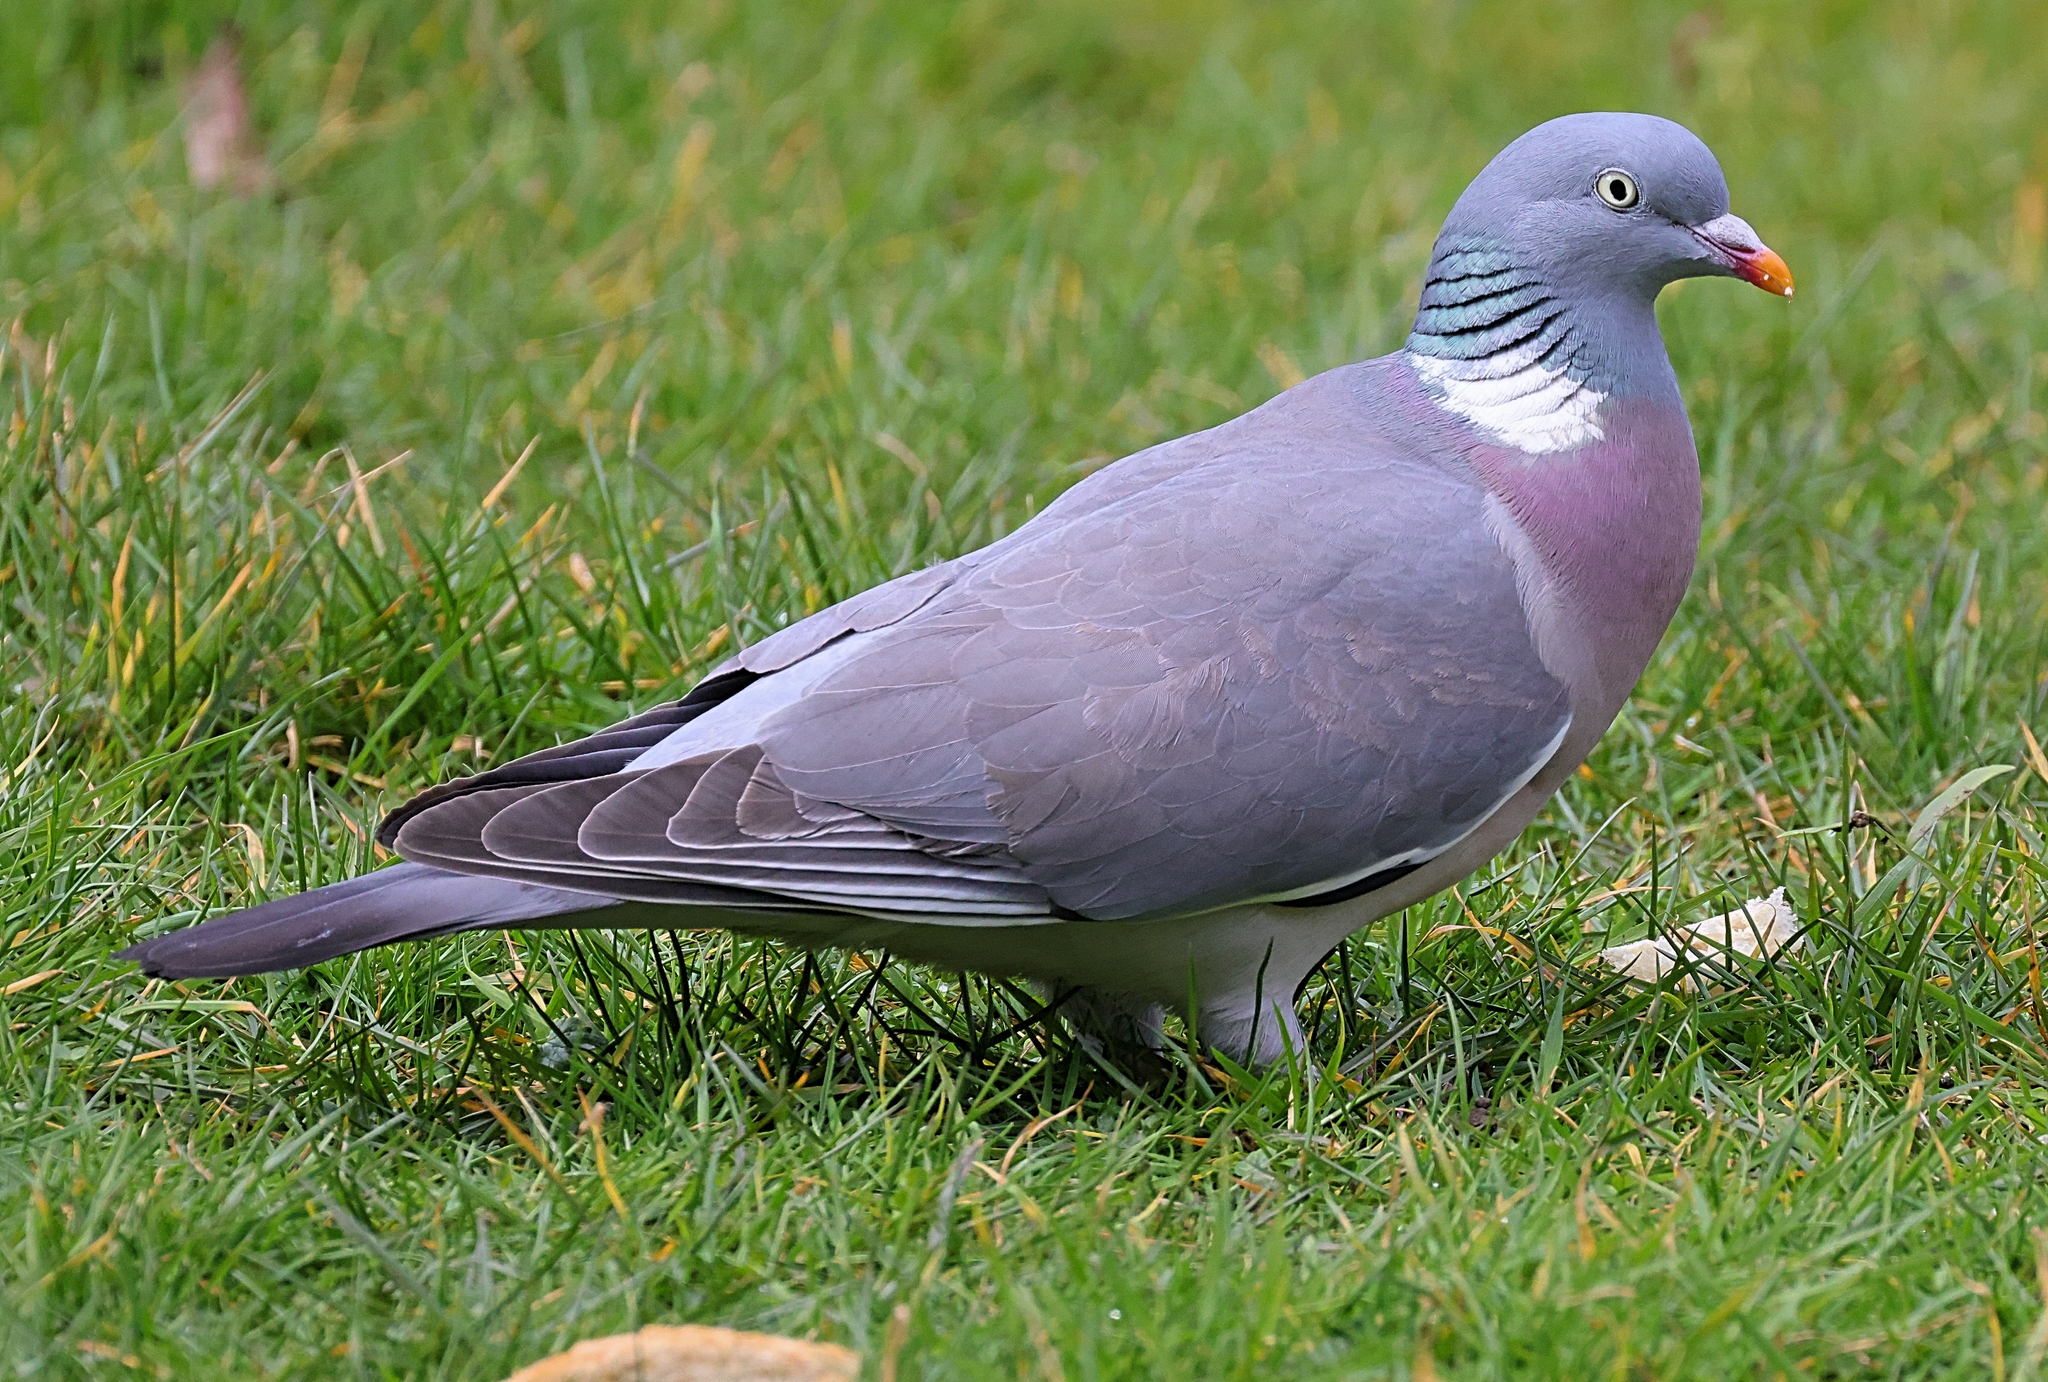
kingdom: Animalia
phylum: Chordata
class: Aves
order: Columbiformes
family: Columbidae
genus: Columba
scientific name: Columba palumbus
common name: Common wood pigeon
